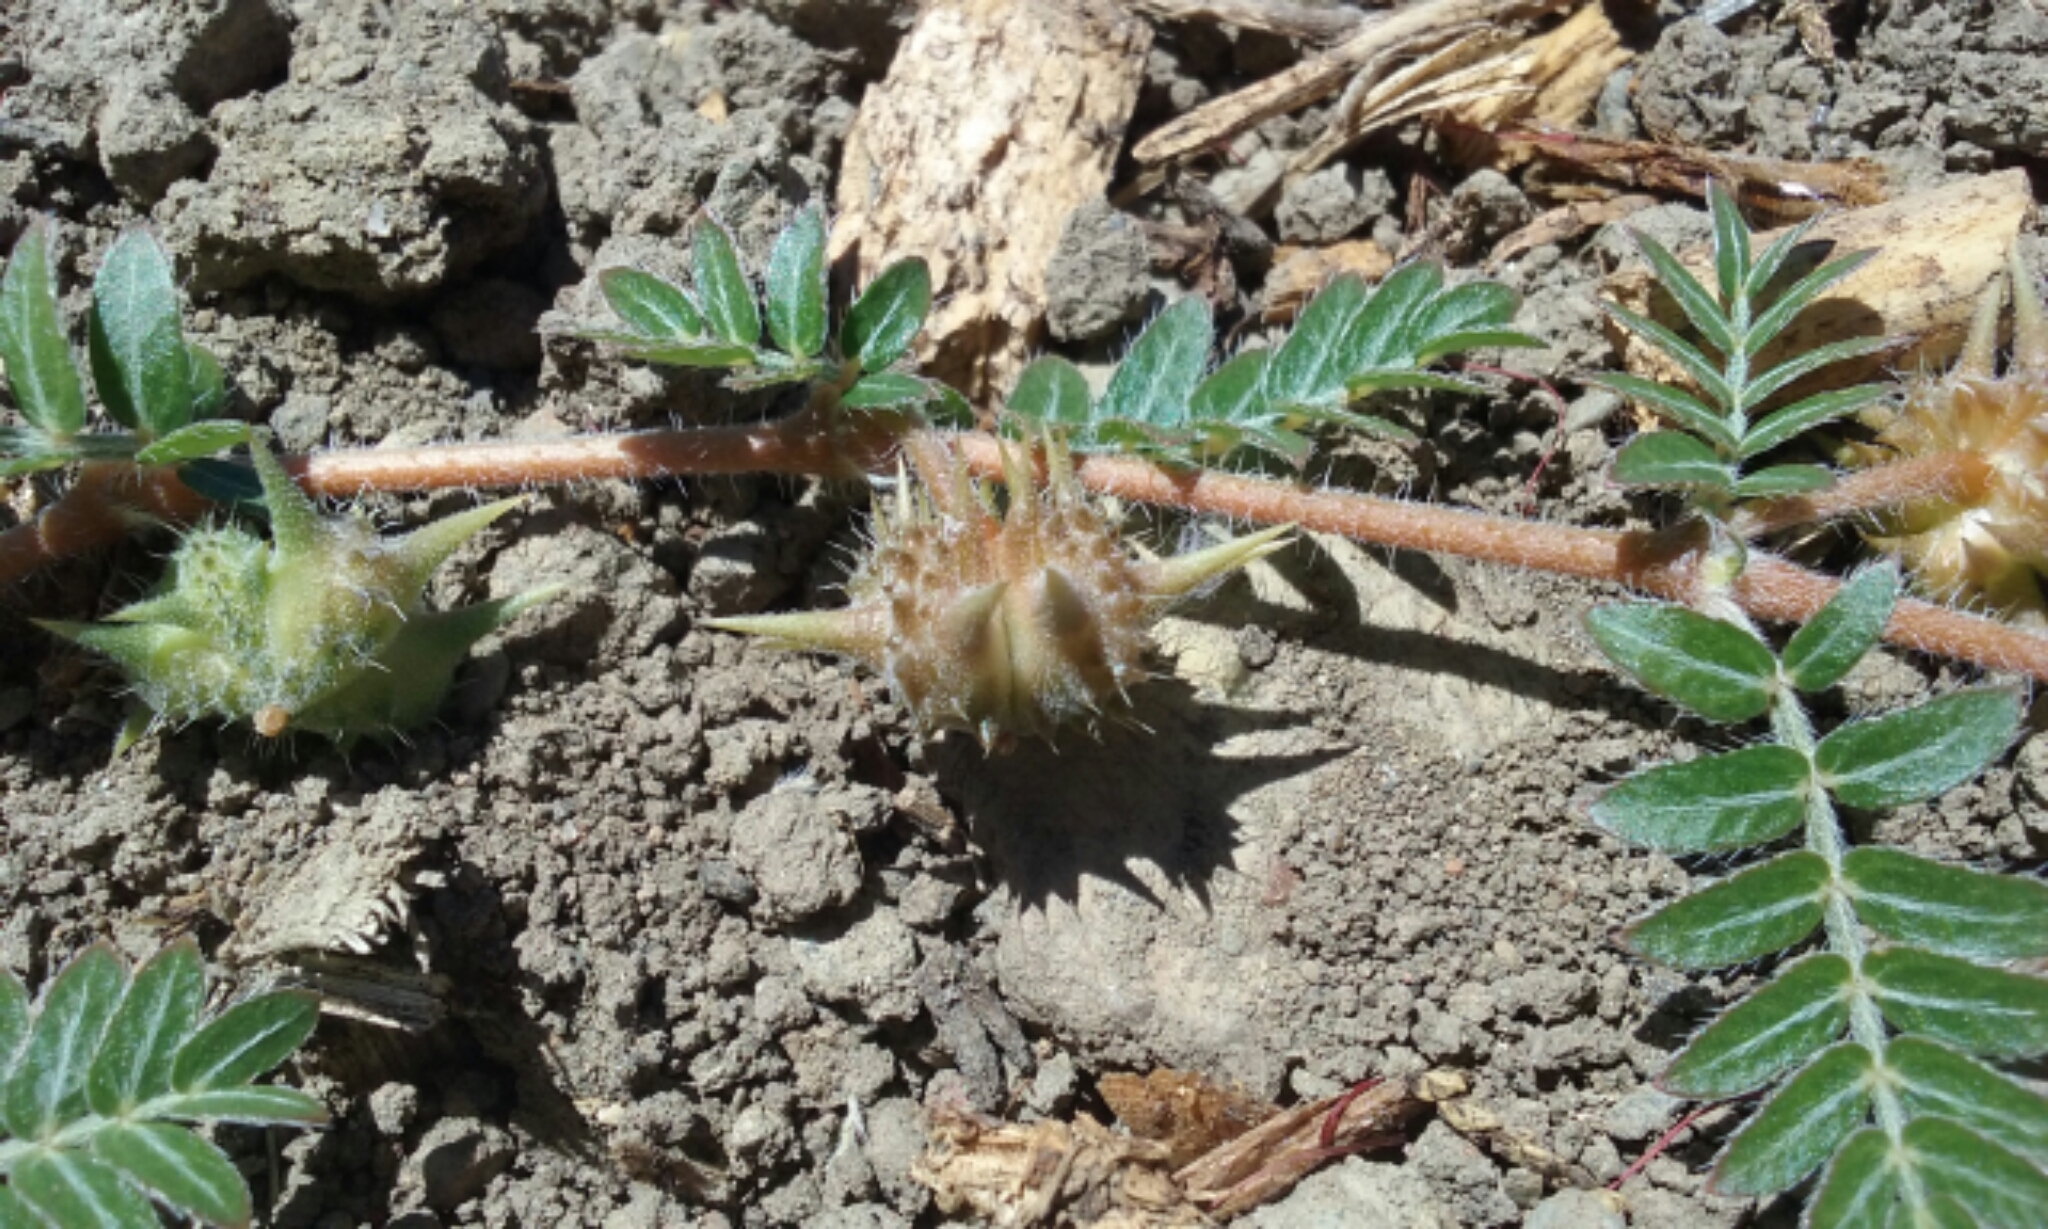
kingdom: Plantae
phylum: Tracheophyta
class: Magnoliopsida
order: Zygophyllales
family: Zygophyllaceae
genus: Tribulus
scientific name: Tribulus terrestris
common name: Puncturevine
